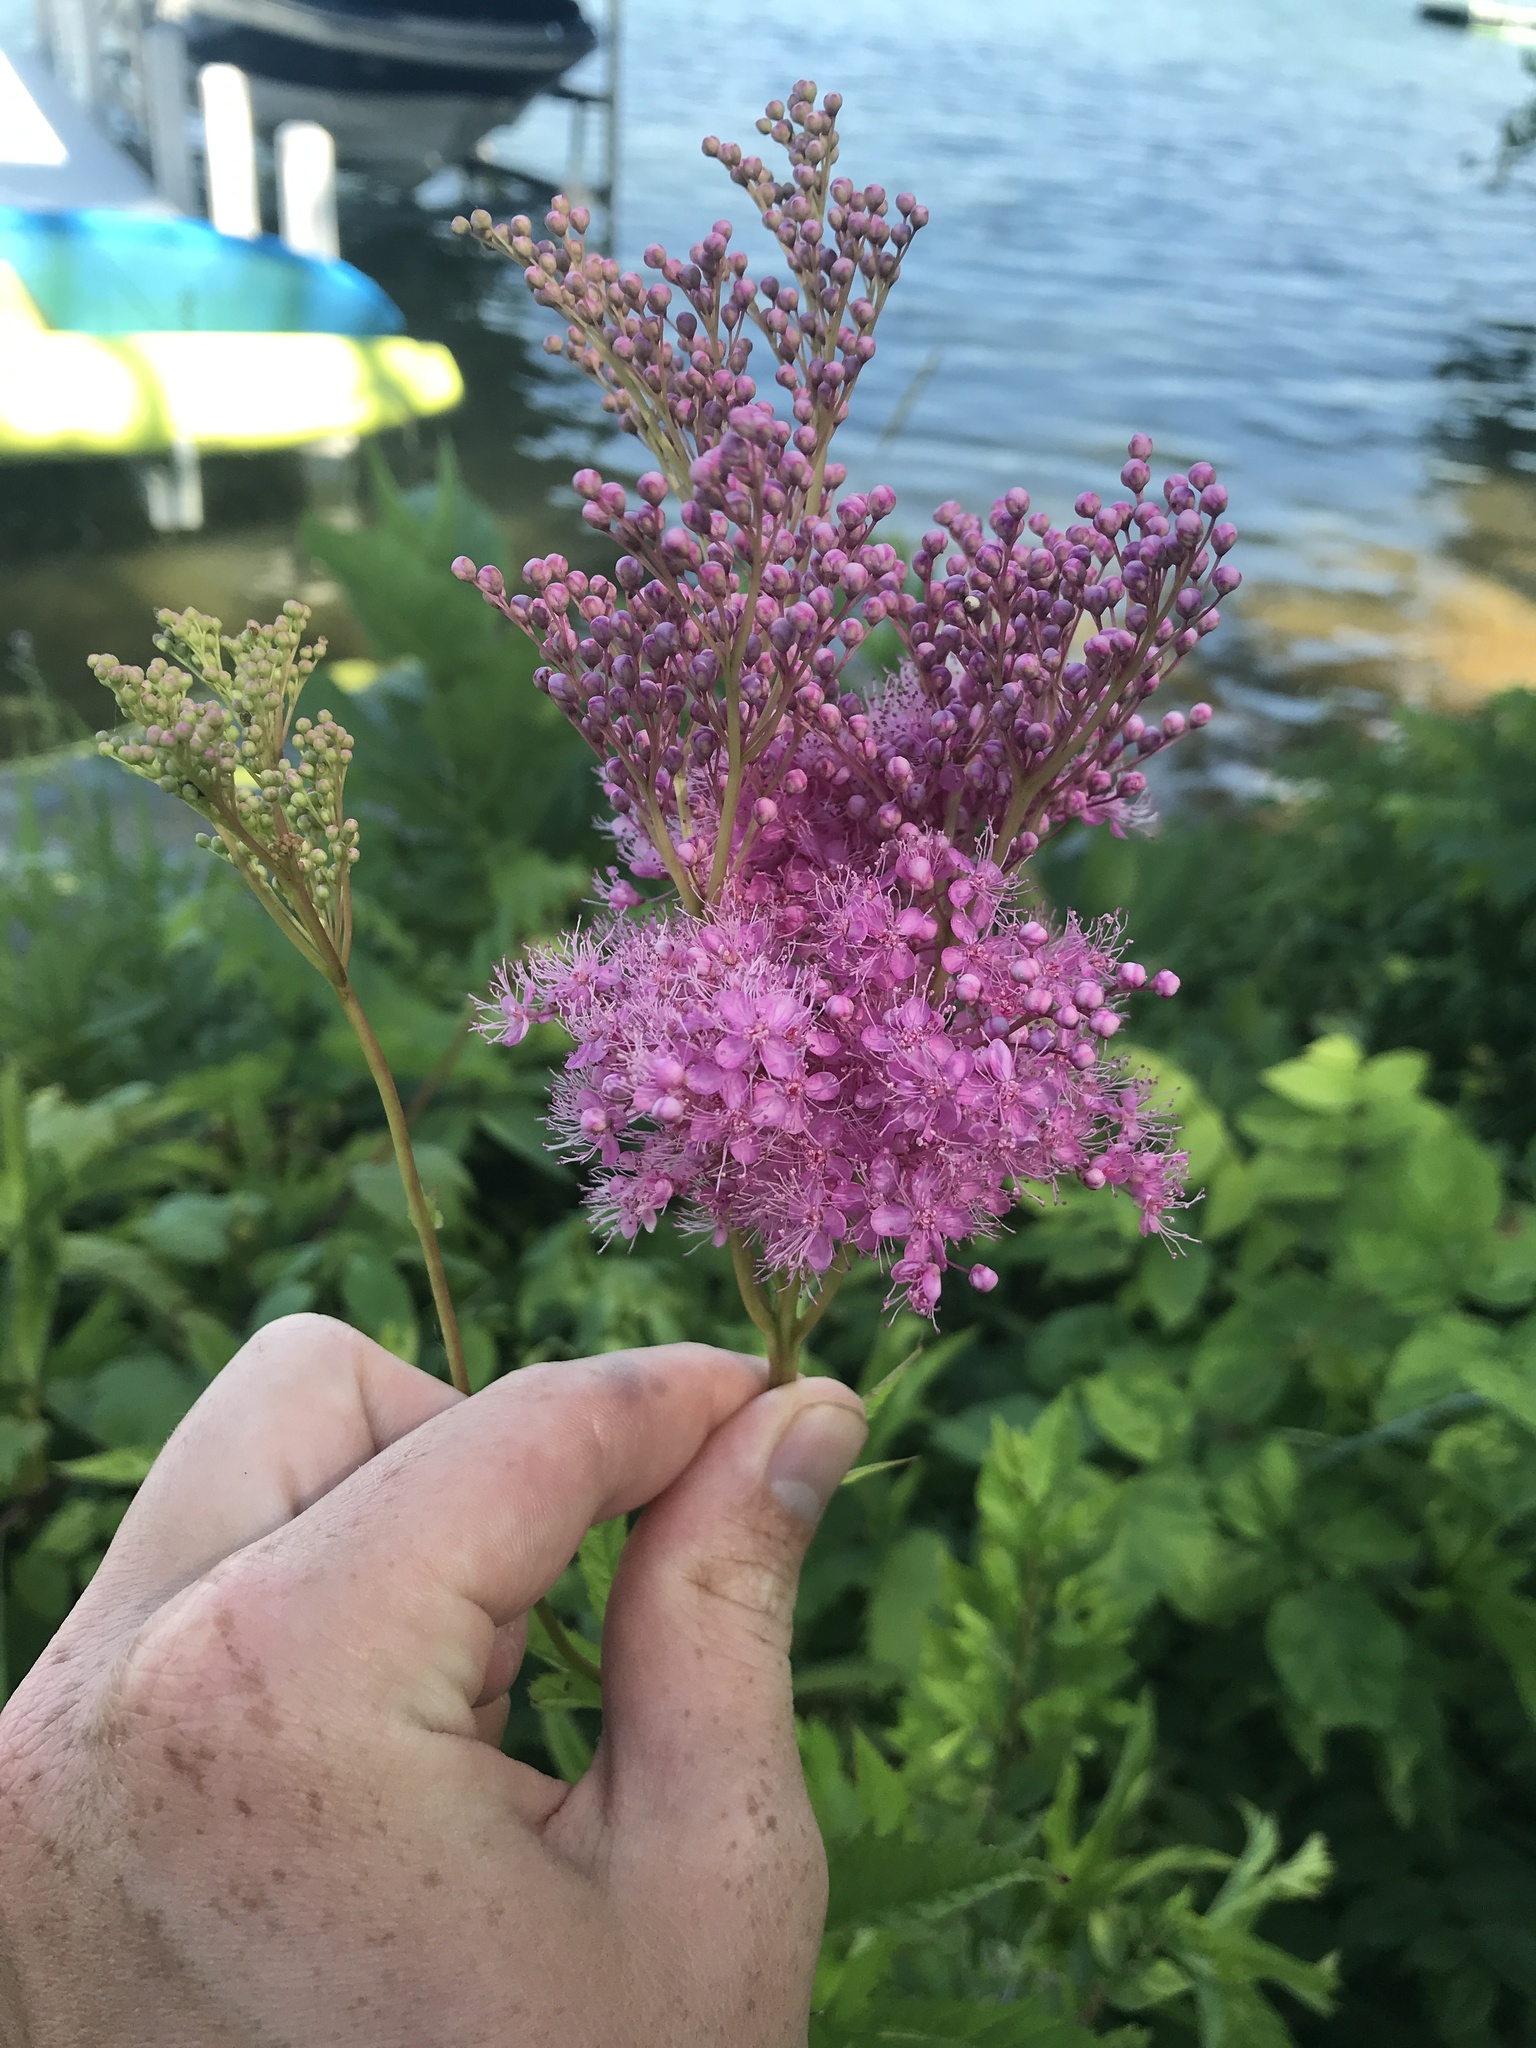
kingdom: Plantae
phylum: Tracheophyta
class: Magnoliopsida
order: Rosales
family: Rosaceae
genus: Filipendula
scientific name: Filipendula rubra
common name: Queen-of-the-prairie
